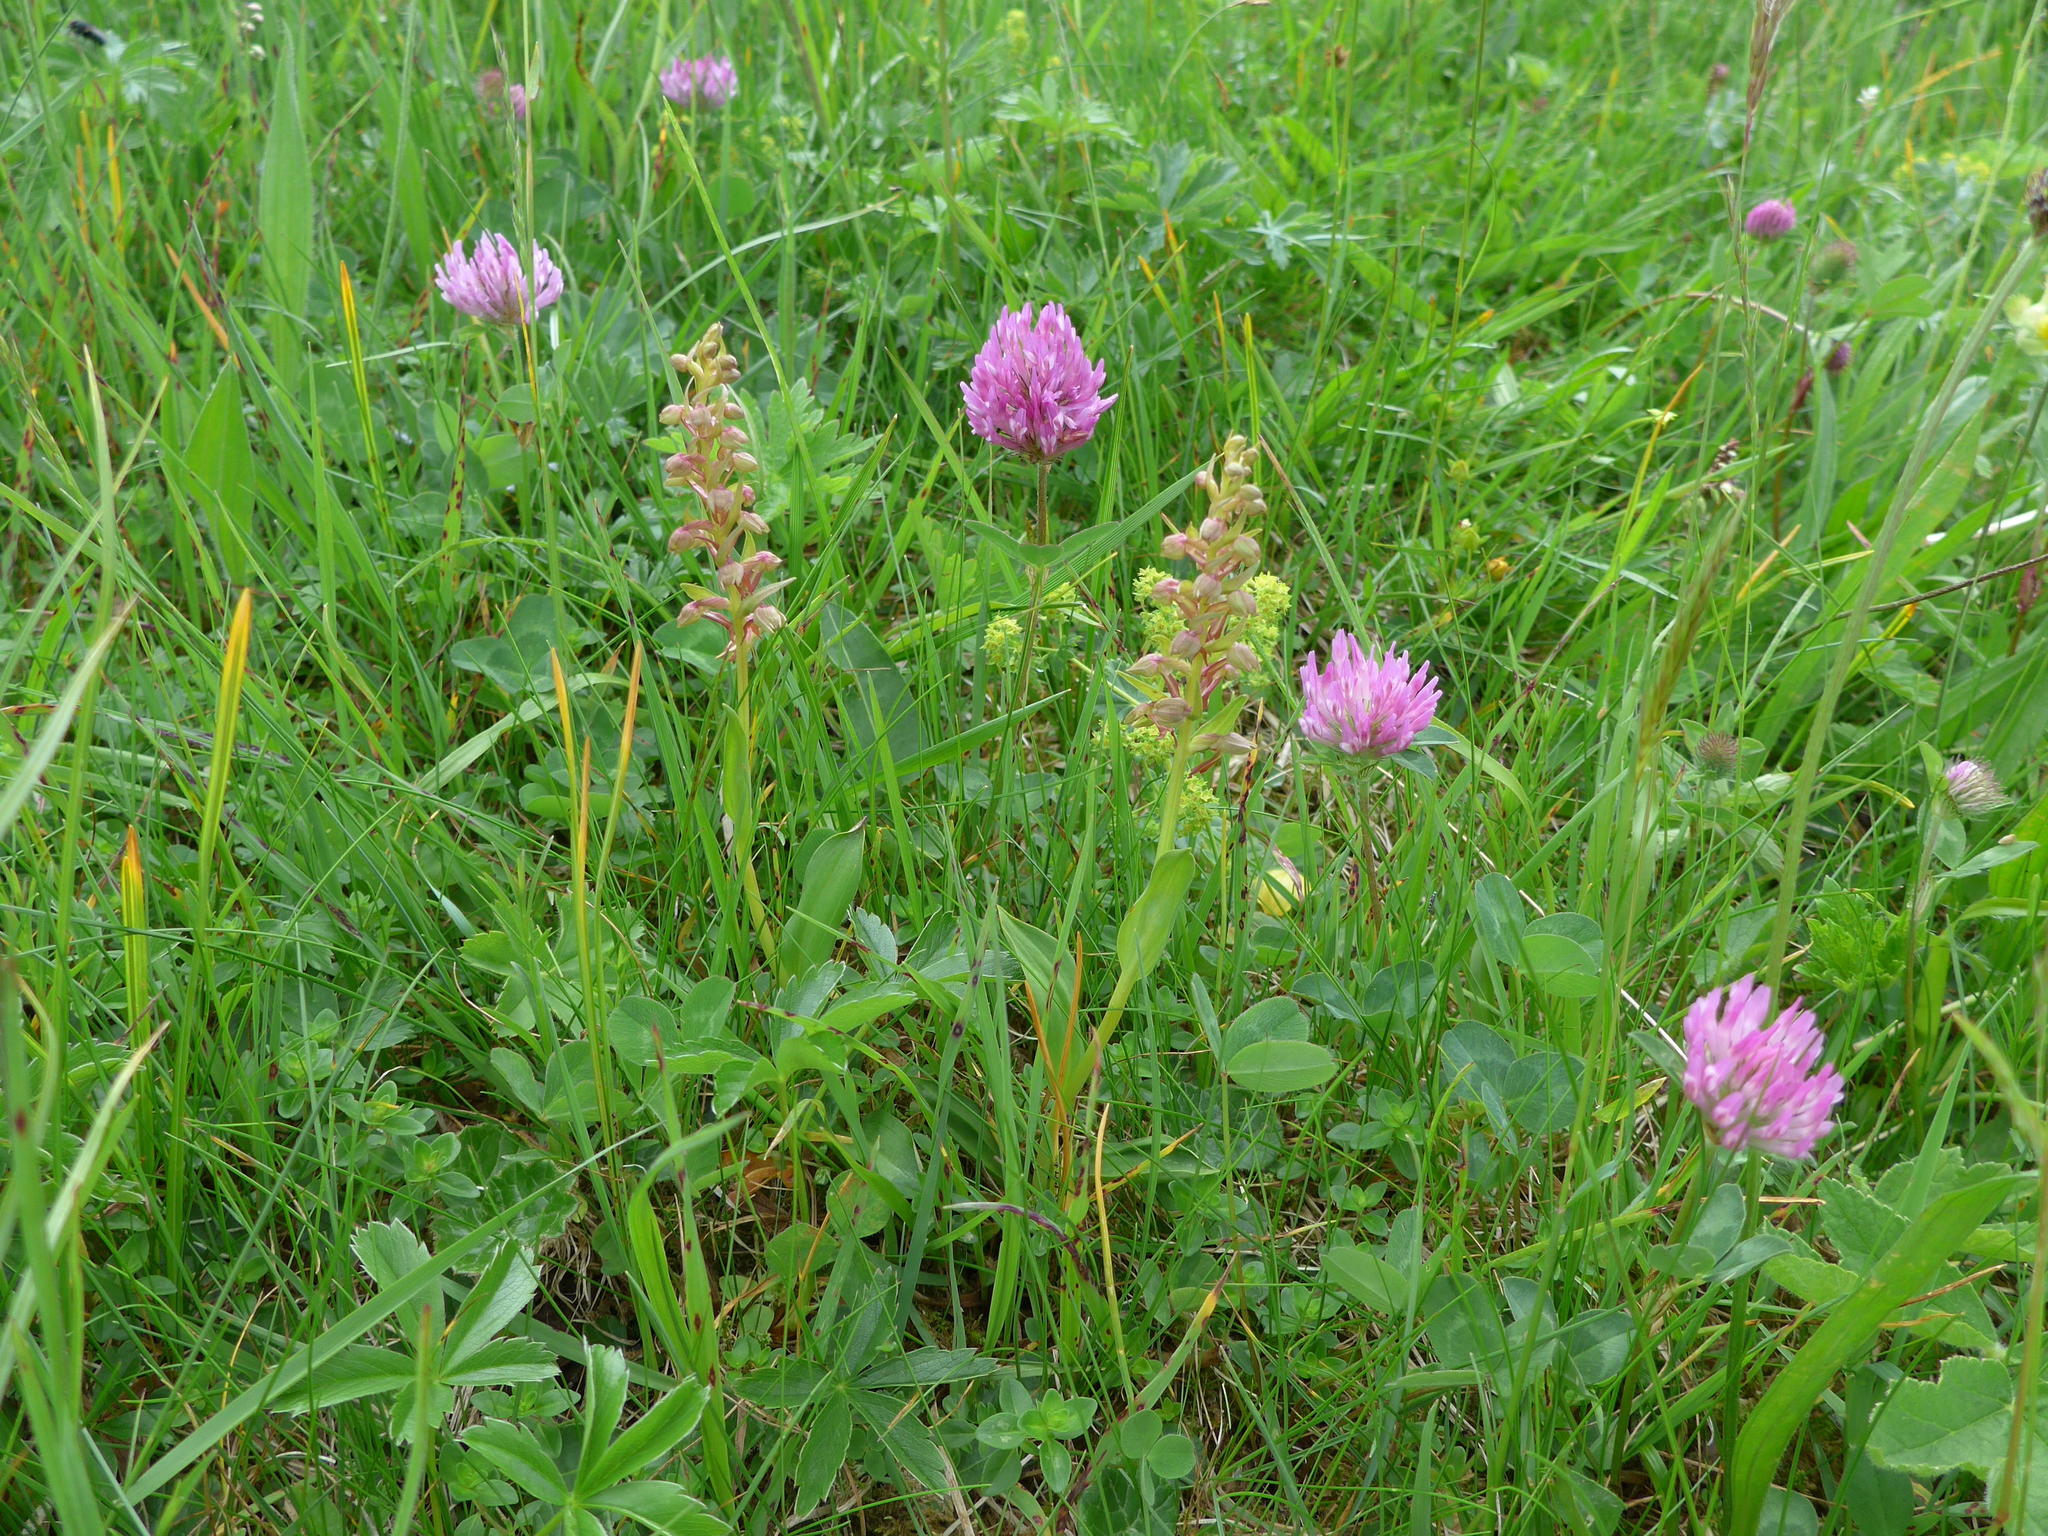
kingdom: Plantae
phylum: Tracheophyta
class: Liliopsida
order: Asparagales
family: Orchidaceae
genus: Dactylorhiza
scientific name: Dactylorhiza viridis
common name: Longbract frog orchid
